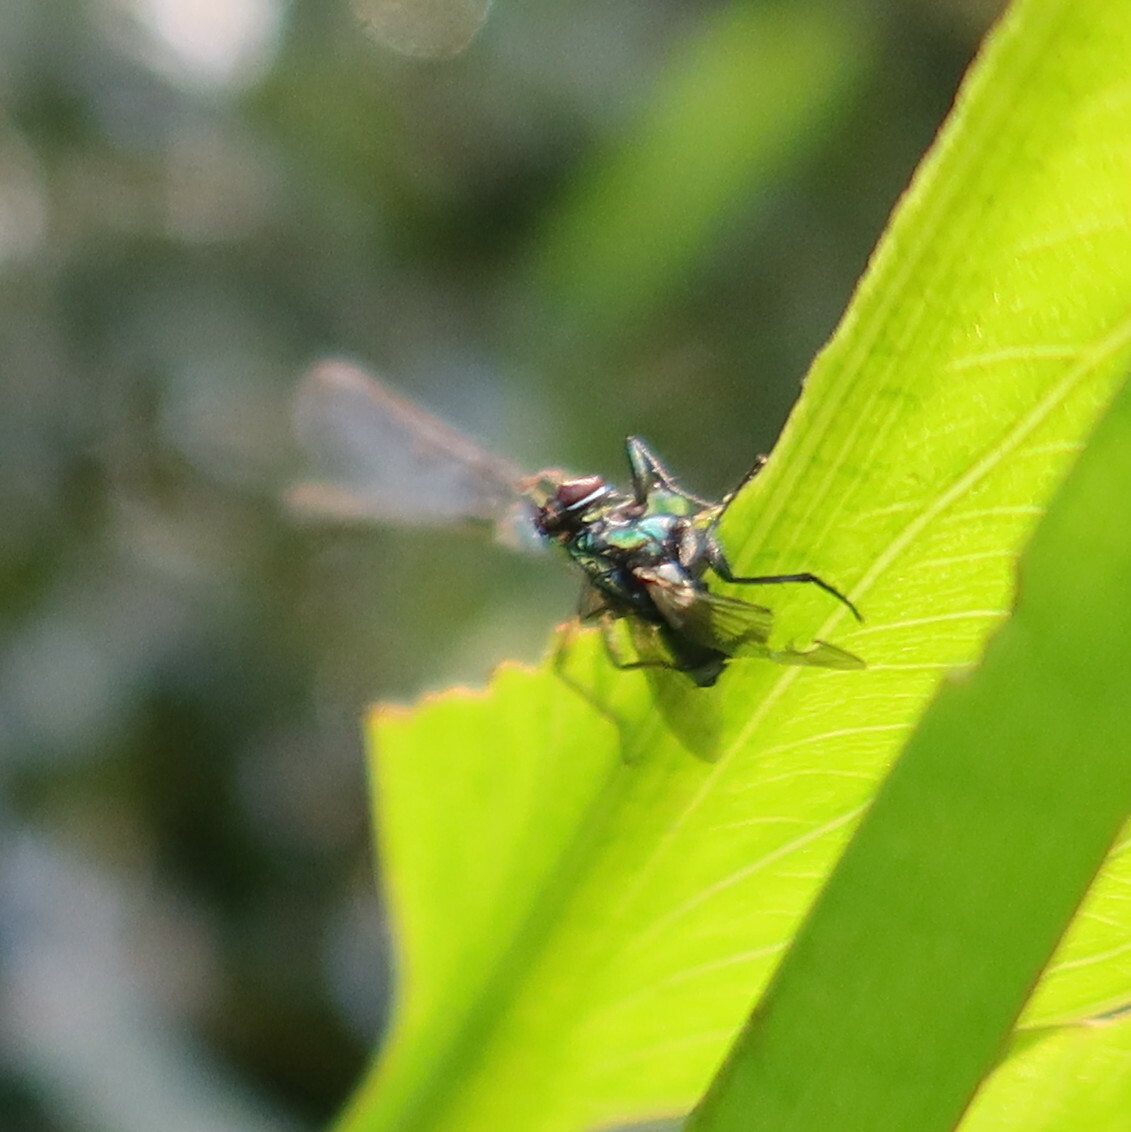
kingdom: Animalia
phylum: Arthropoda
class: Insecta
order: Odonata
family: Coenagrionidae
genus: Ischnura
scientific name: Ischnura senegalensis
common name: Tropical bluetail
